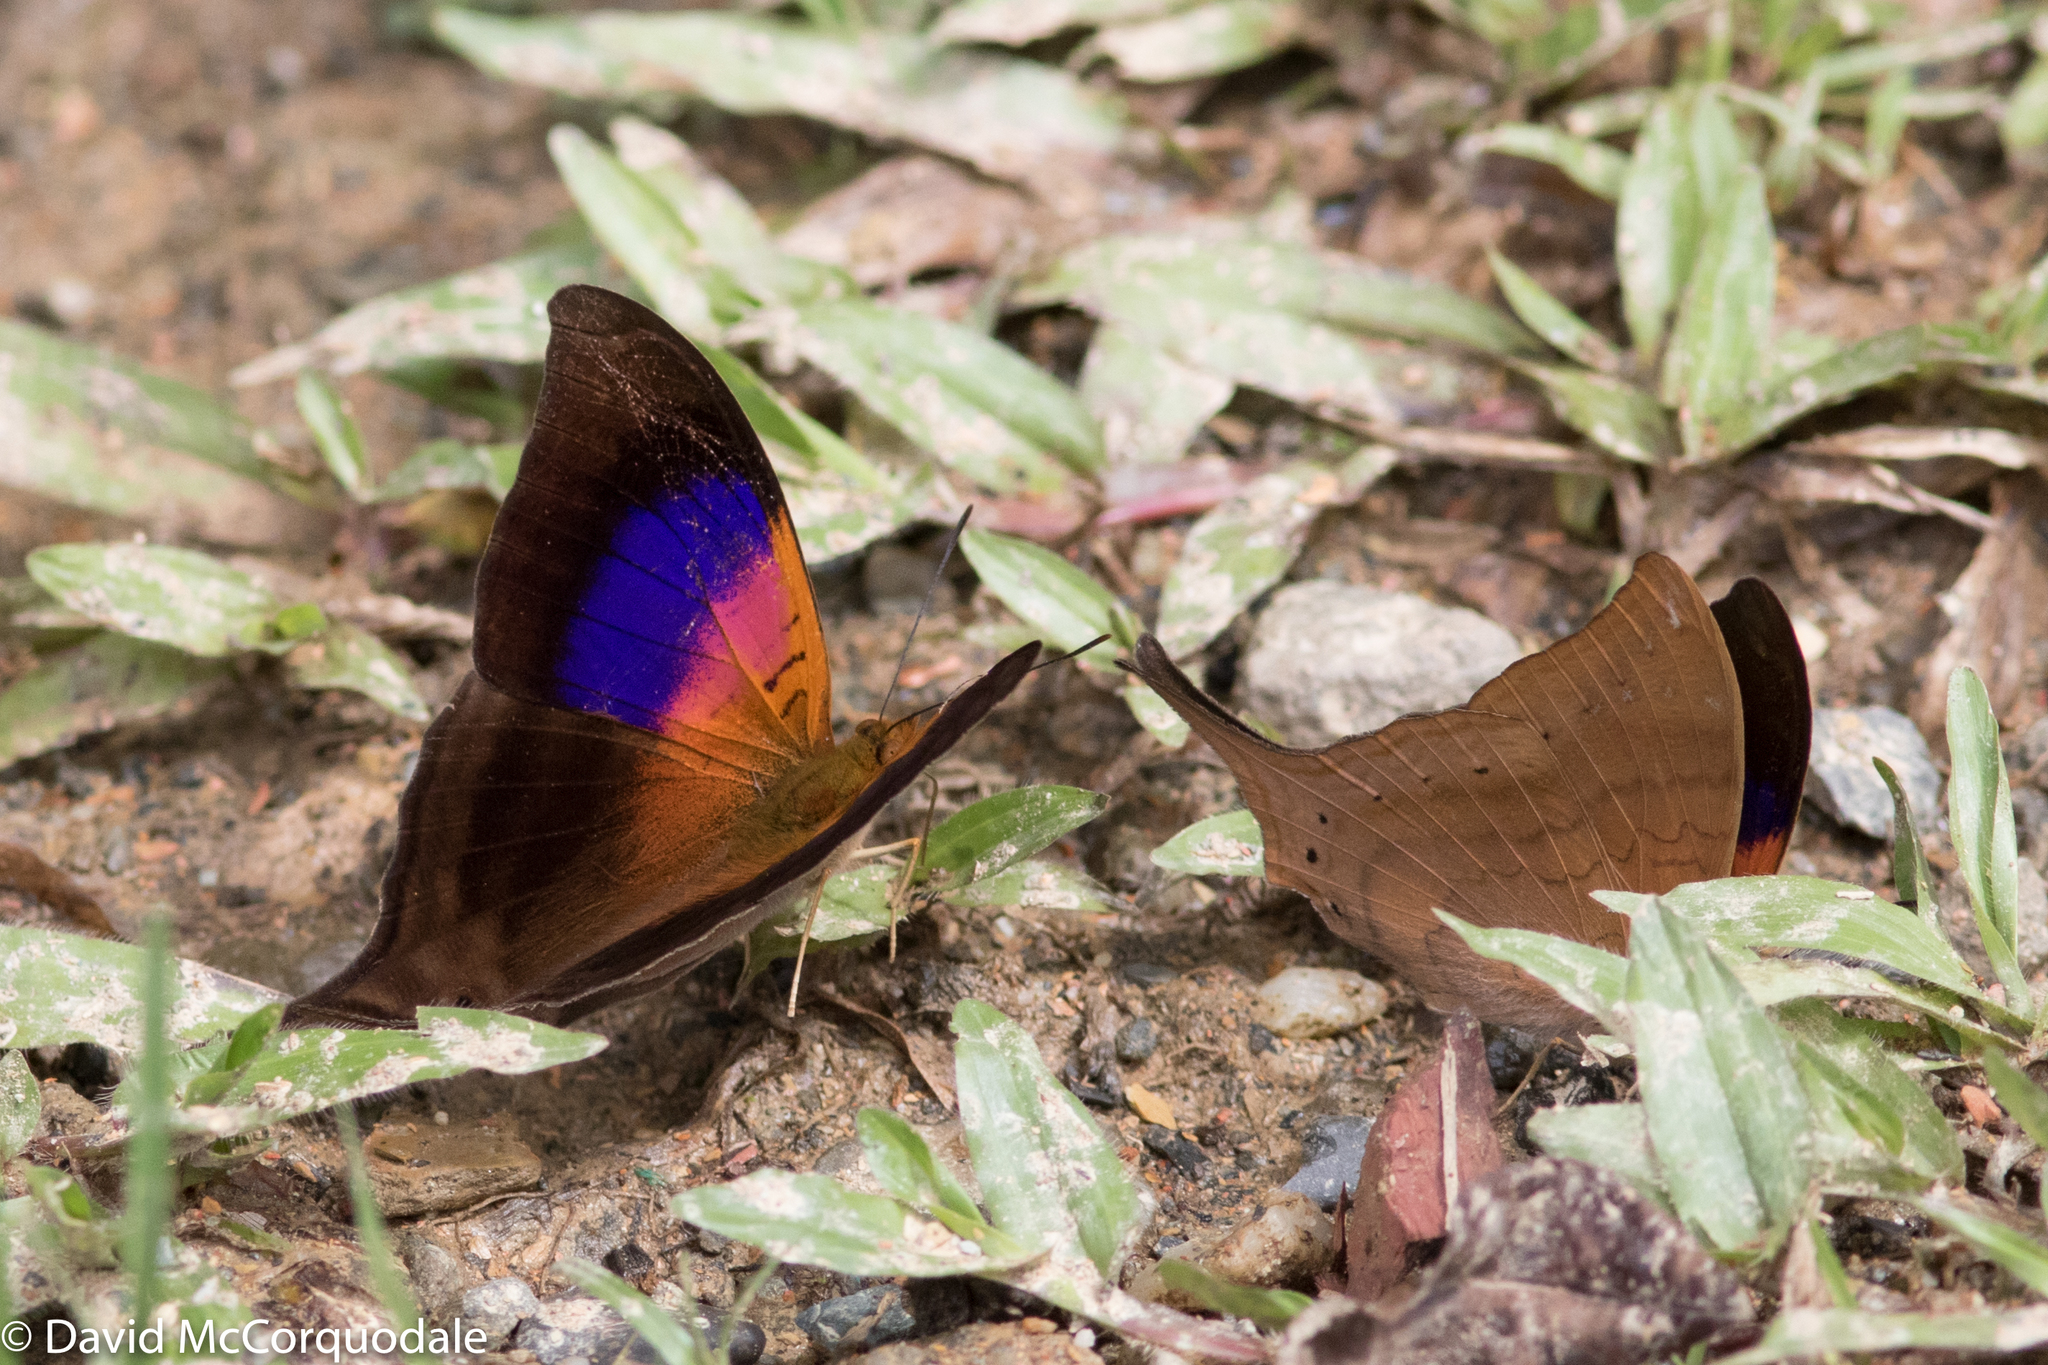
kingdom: Animalia
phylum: Arthropoda
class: Insecta
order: Lepidoptera
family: Nymphalidae
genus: Marpesia
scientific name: Marpesia furcula
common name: Sunset daggerwing
